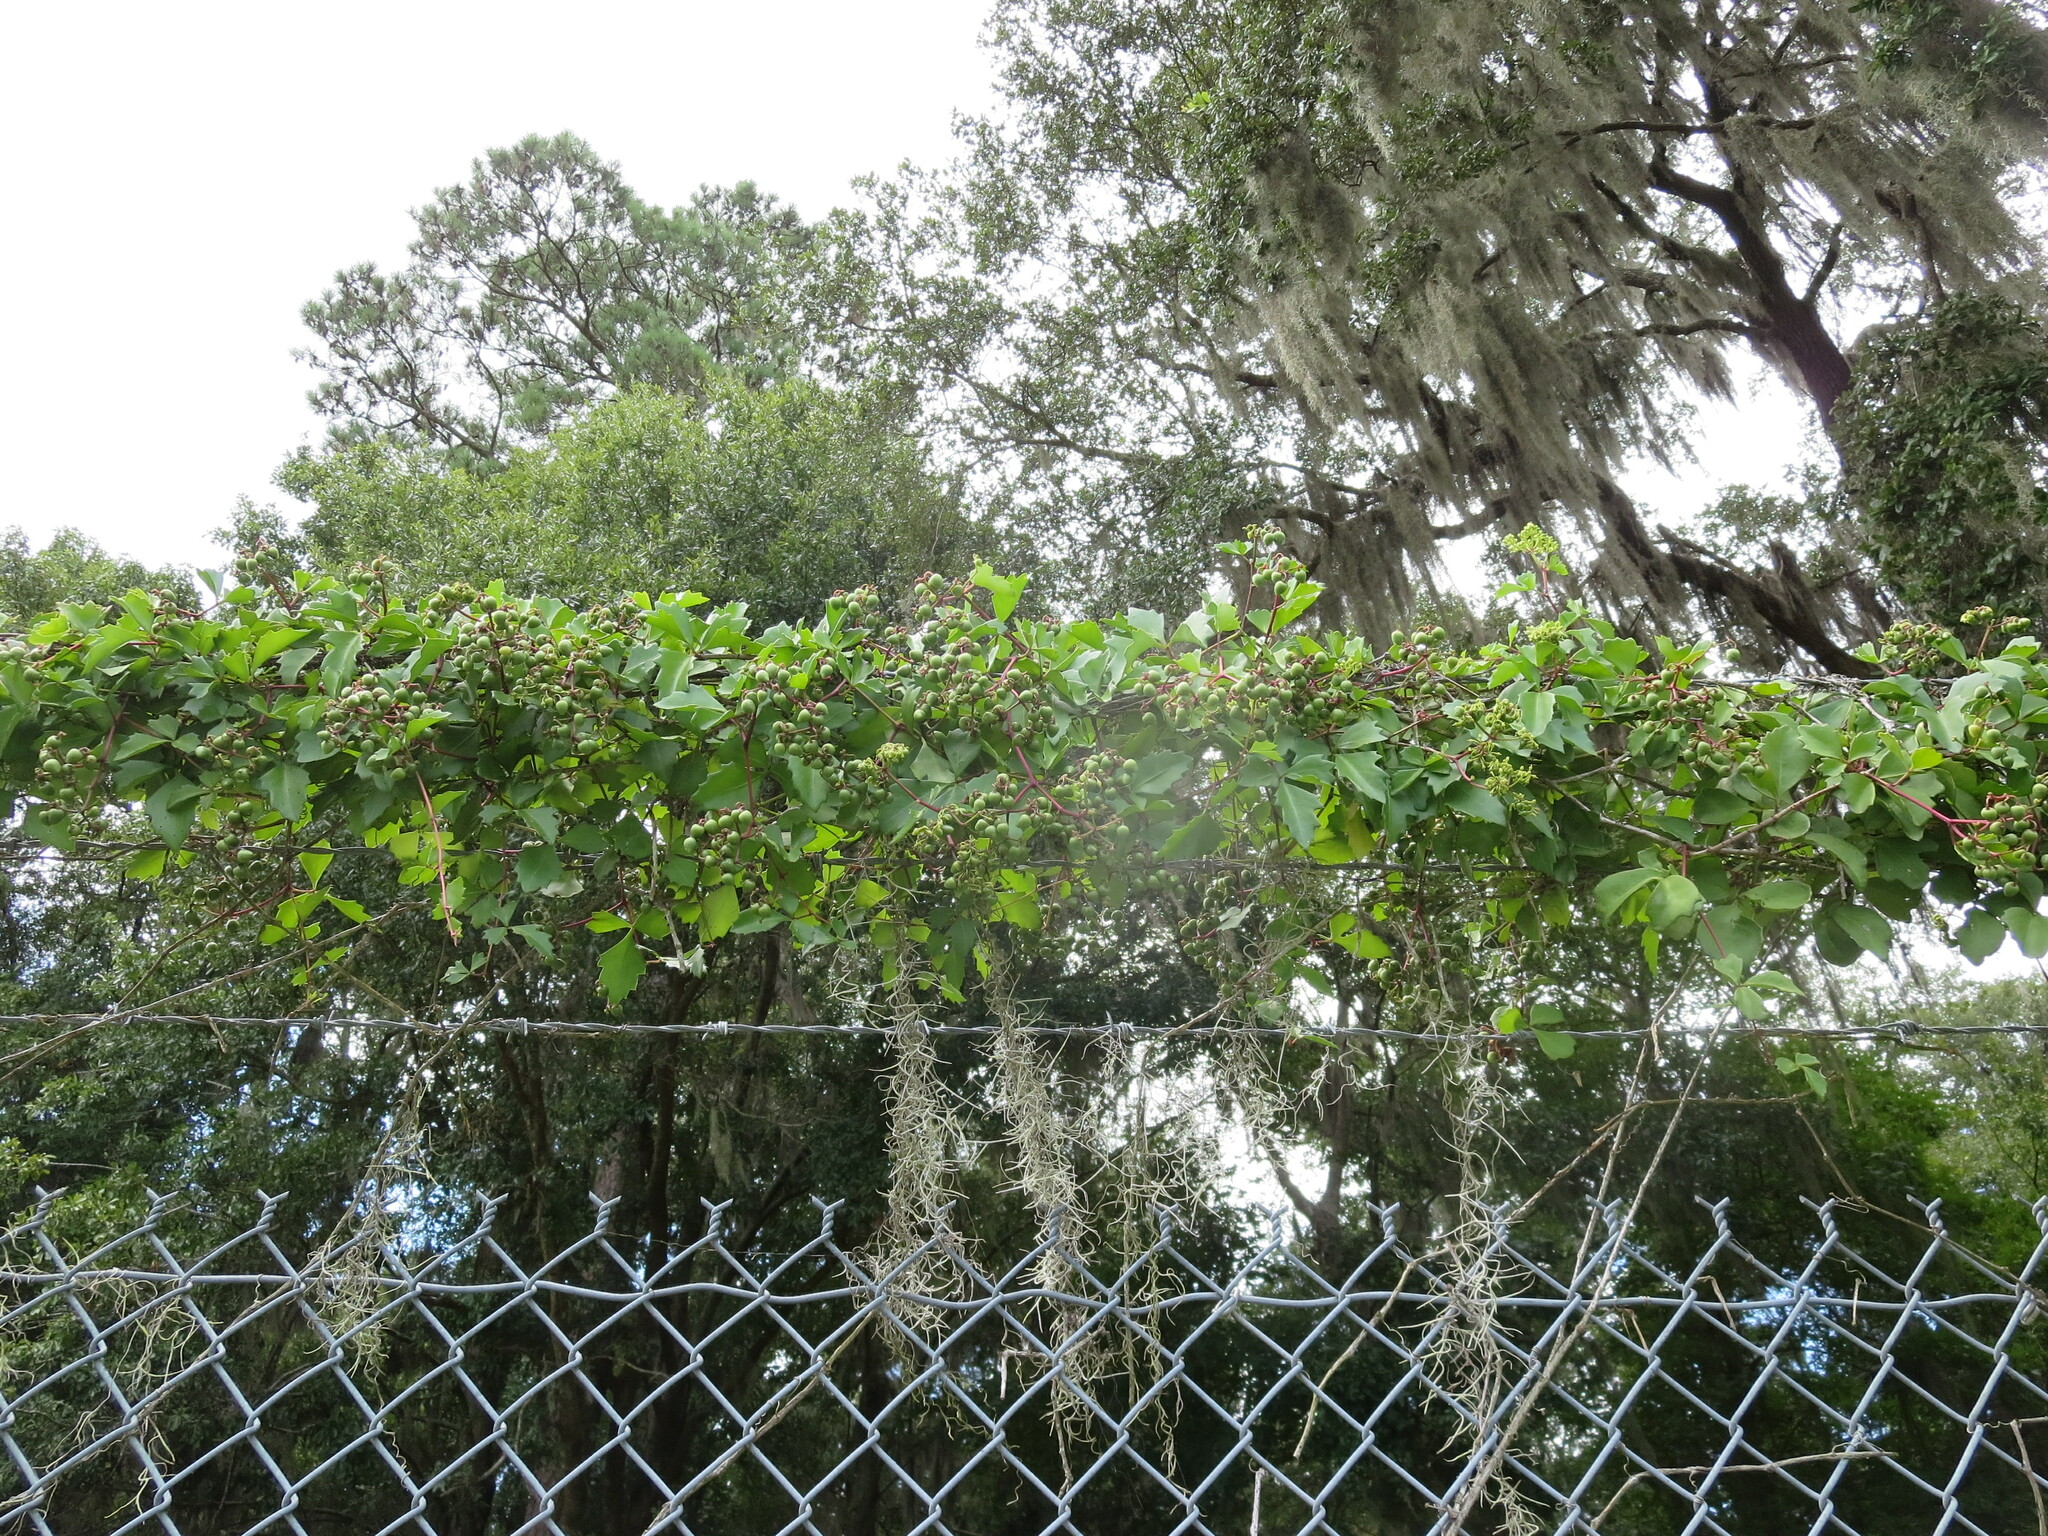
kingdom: Plantae
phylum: Tracheophyta
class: Magnoliopsida
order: Vitales
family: Vitaceae
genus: Cissus
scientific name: Cissus trifoliata
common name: Vine-sorrel
